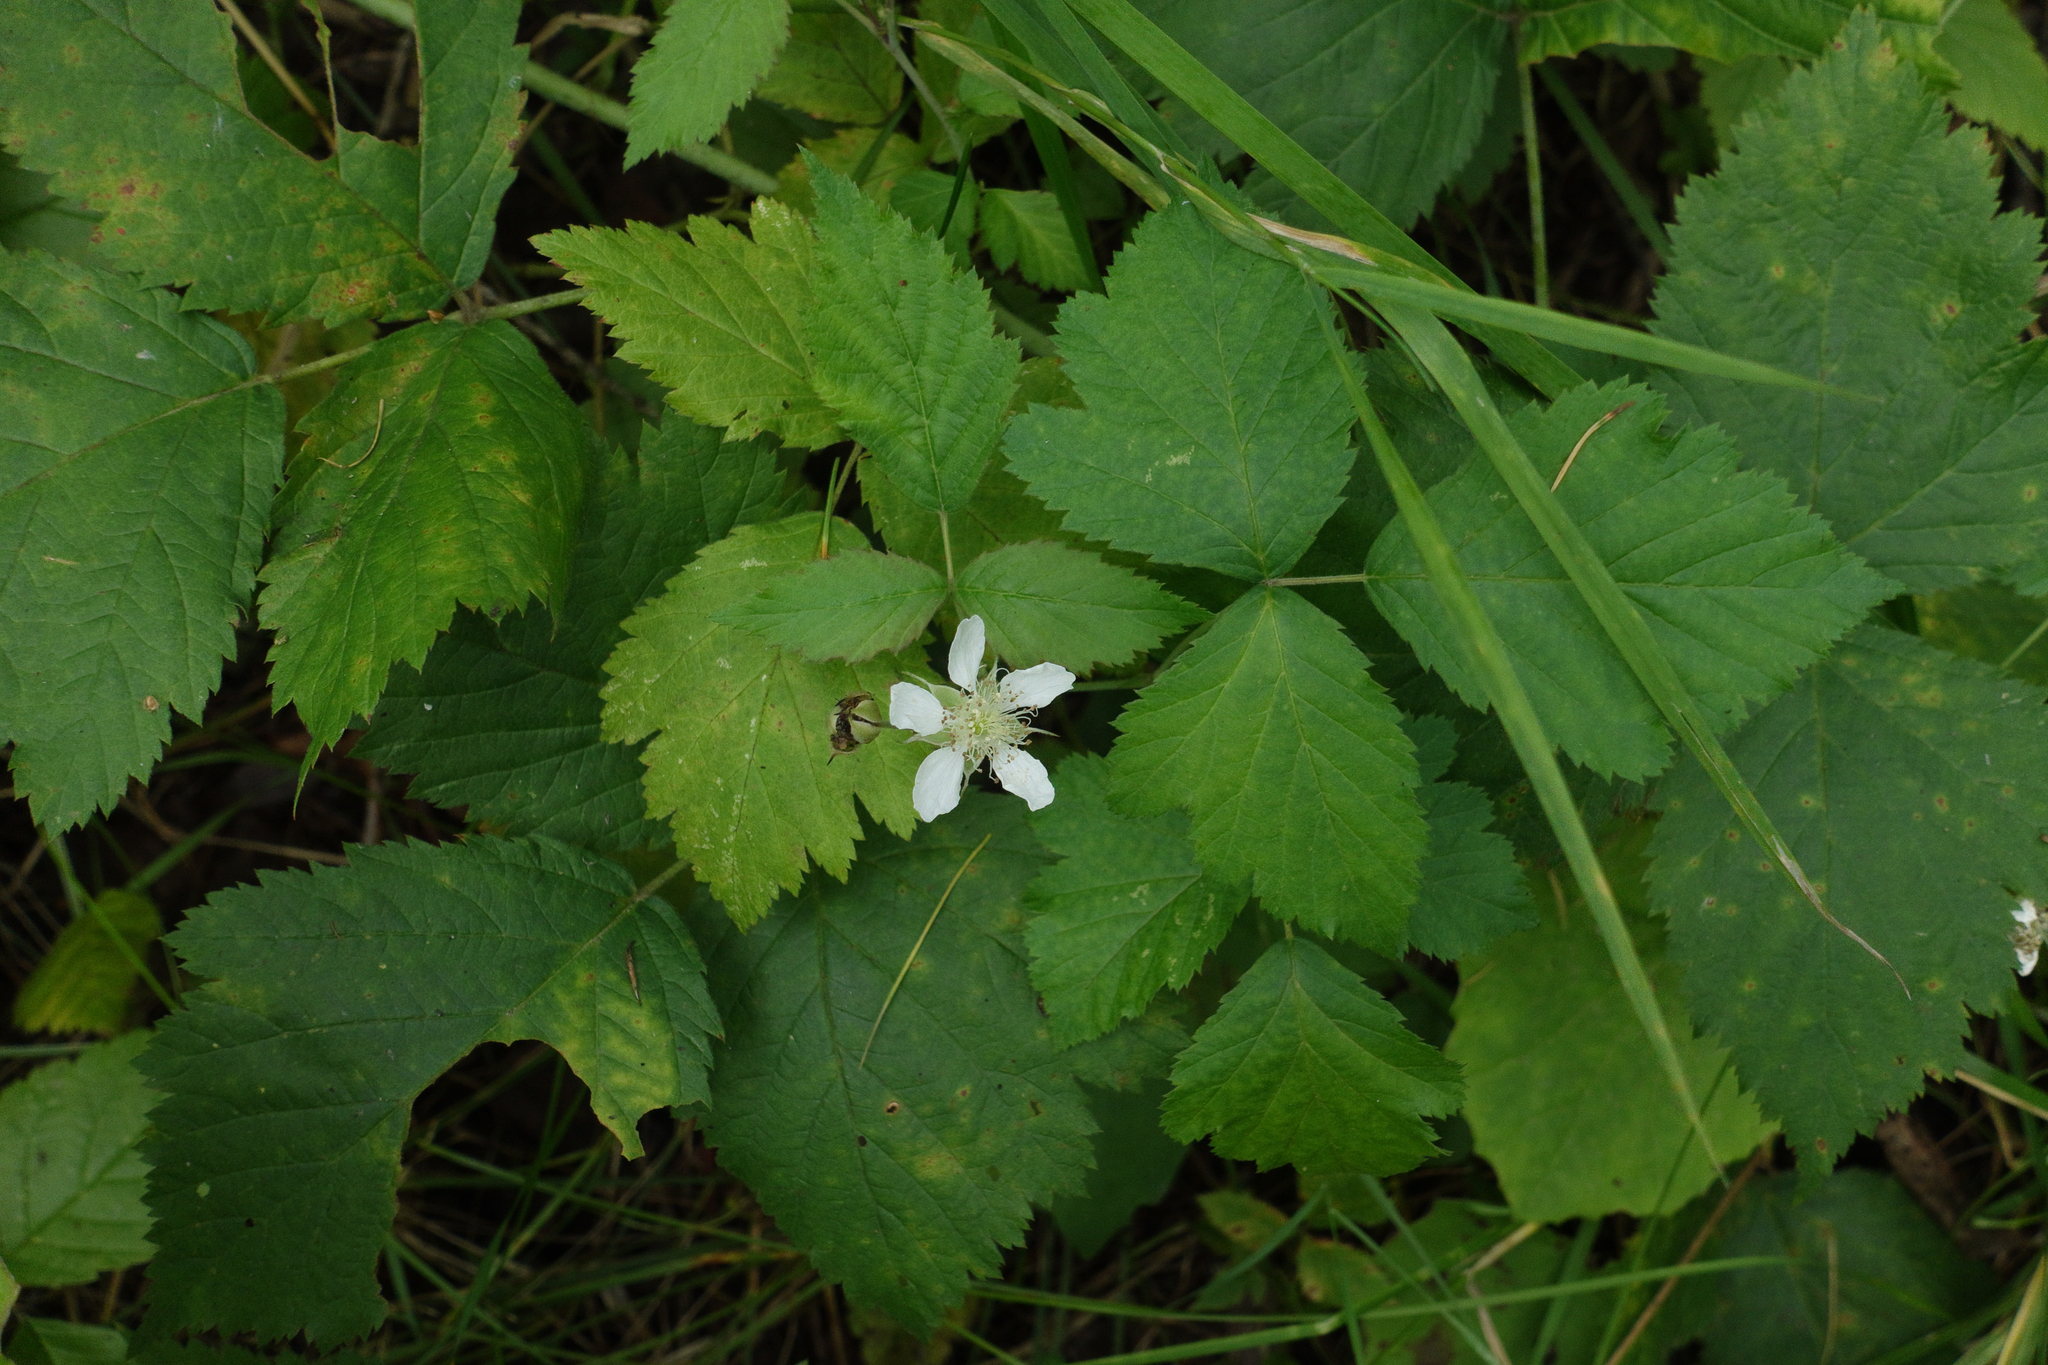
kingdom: Plantae
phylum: Tracheophyta
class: Magnoliopsida
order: Rosales
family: Rosaceae
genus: Rubus
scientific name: Rubus caesius
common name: Dewberry
